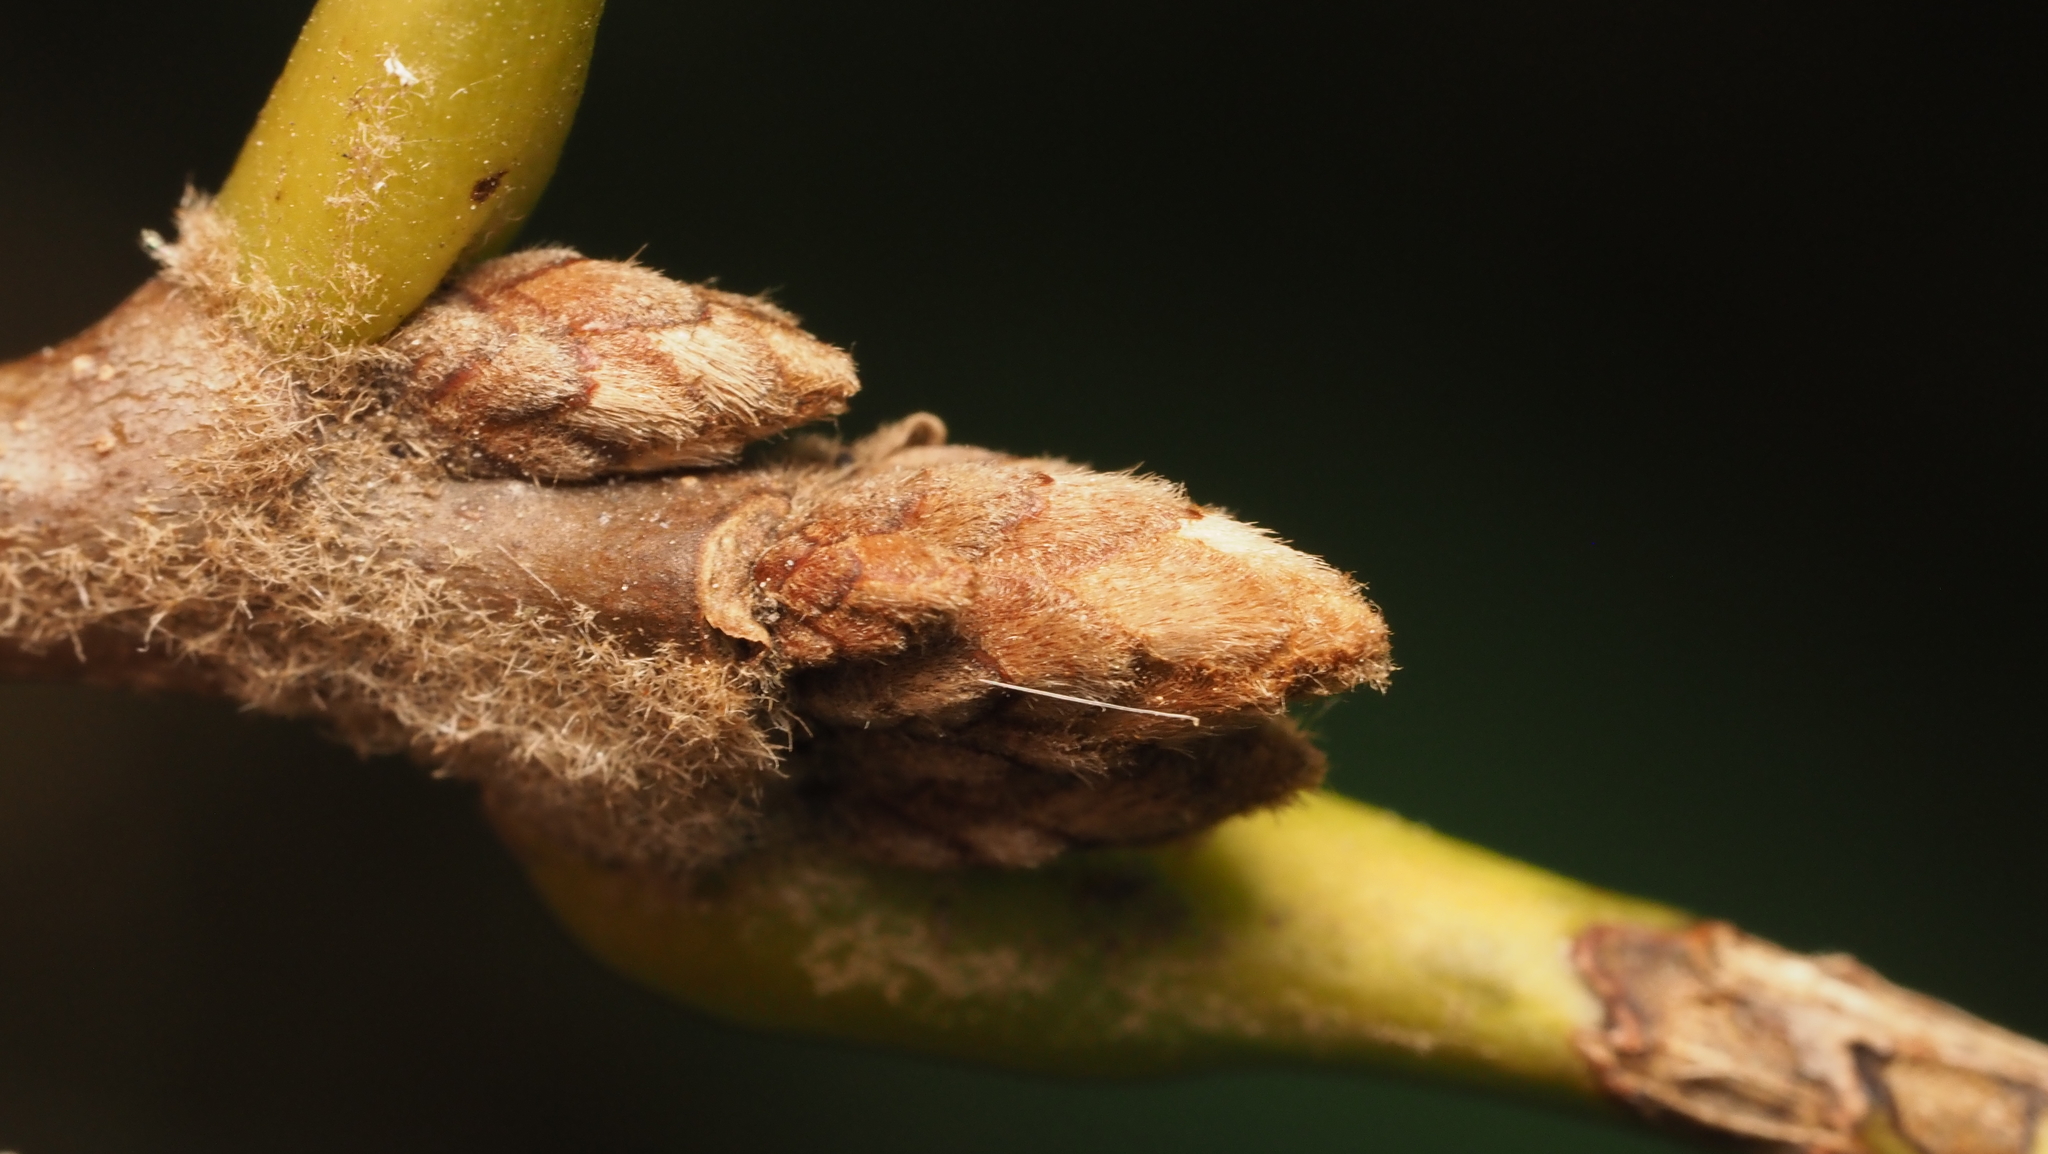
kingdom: Plantae
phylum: Tracheophyta
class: Magnoliopsida
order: Fagales
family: Fagaceae
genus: Quercus
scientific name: Quercus velutina
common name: Black oak
